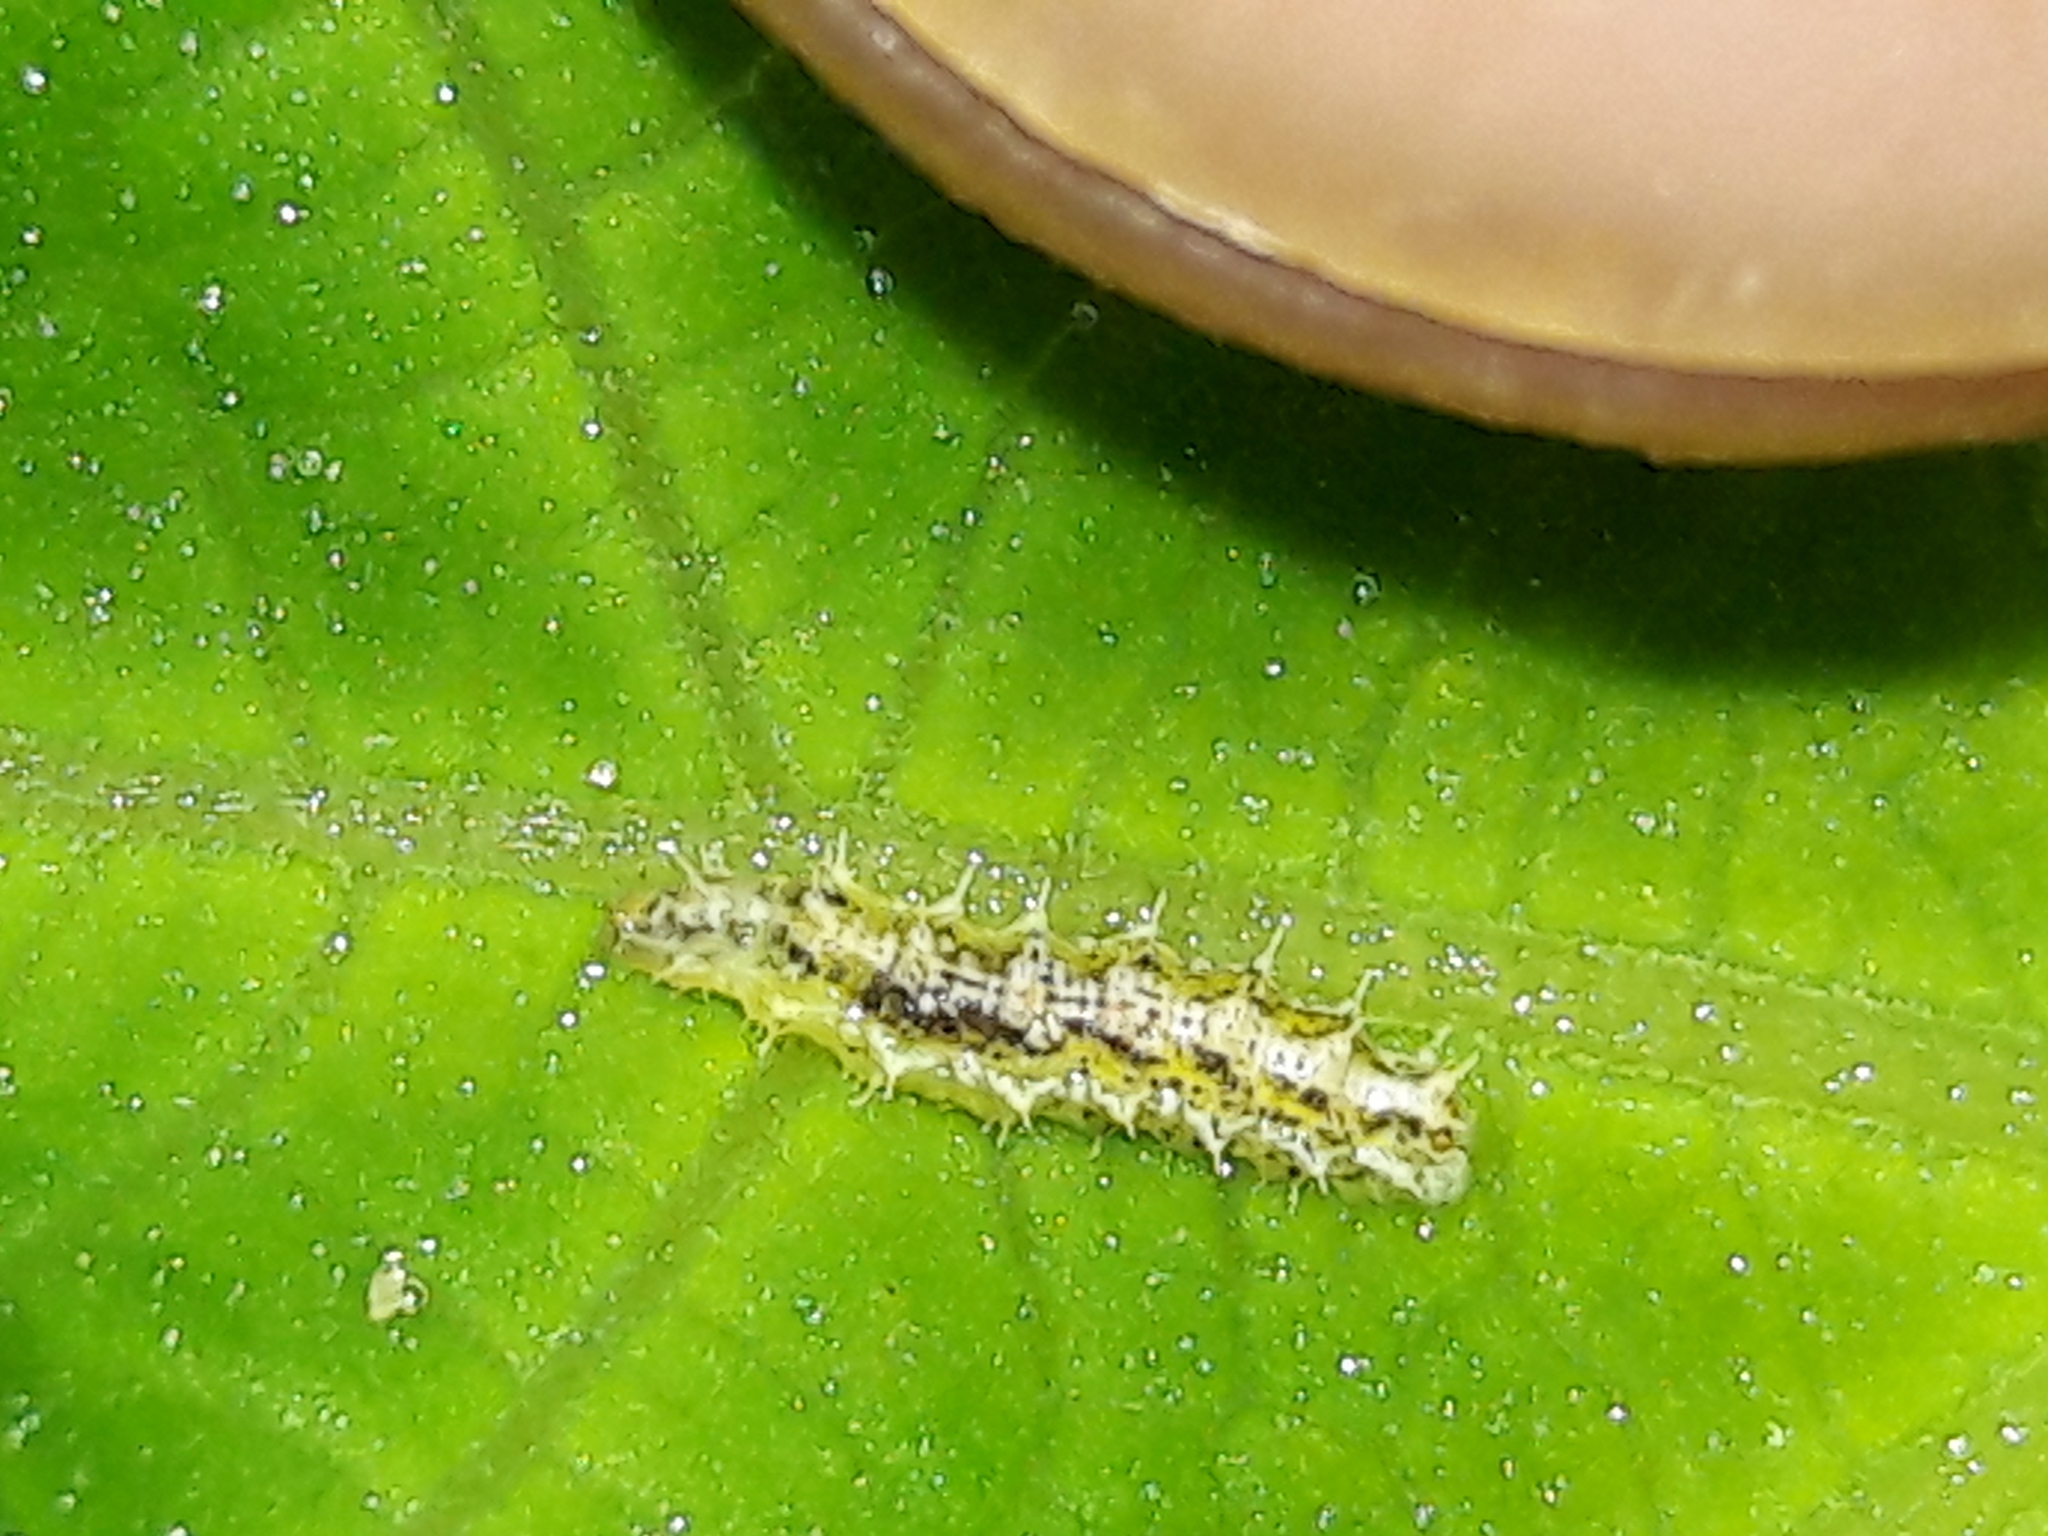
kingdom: Animalia
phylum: Arthropoda
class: Insecta
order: Diptera
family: Syrphidae
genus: Dioprosopa
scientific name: Dioprosopa clavatus
